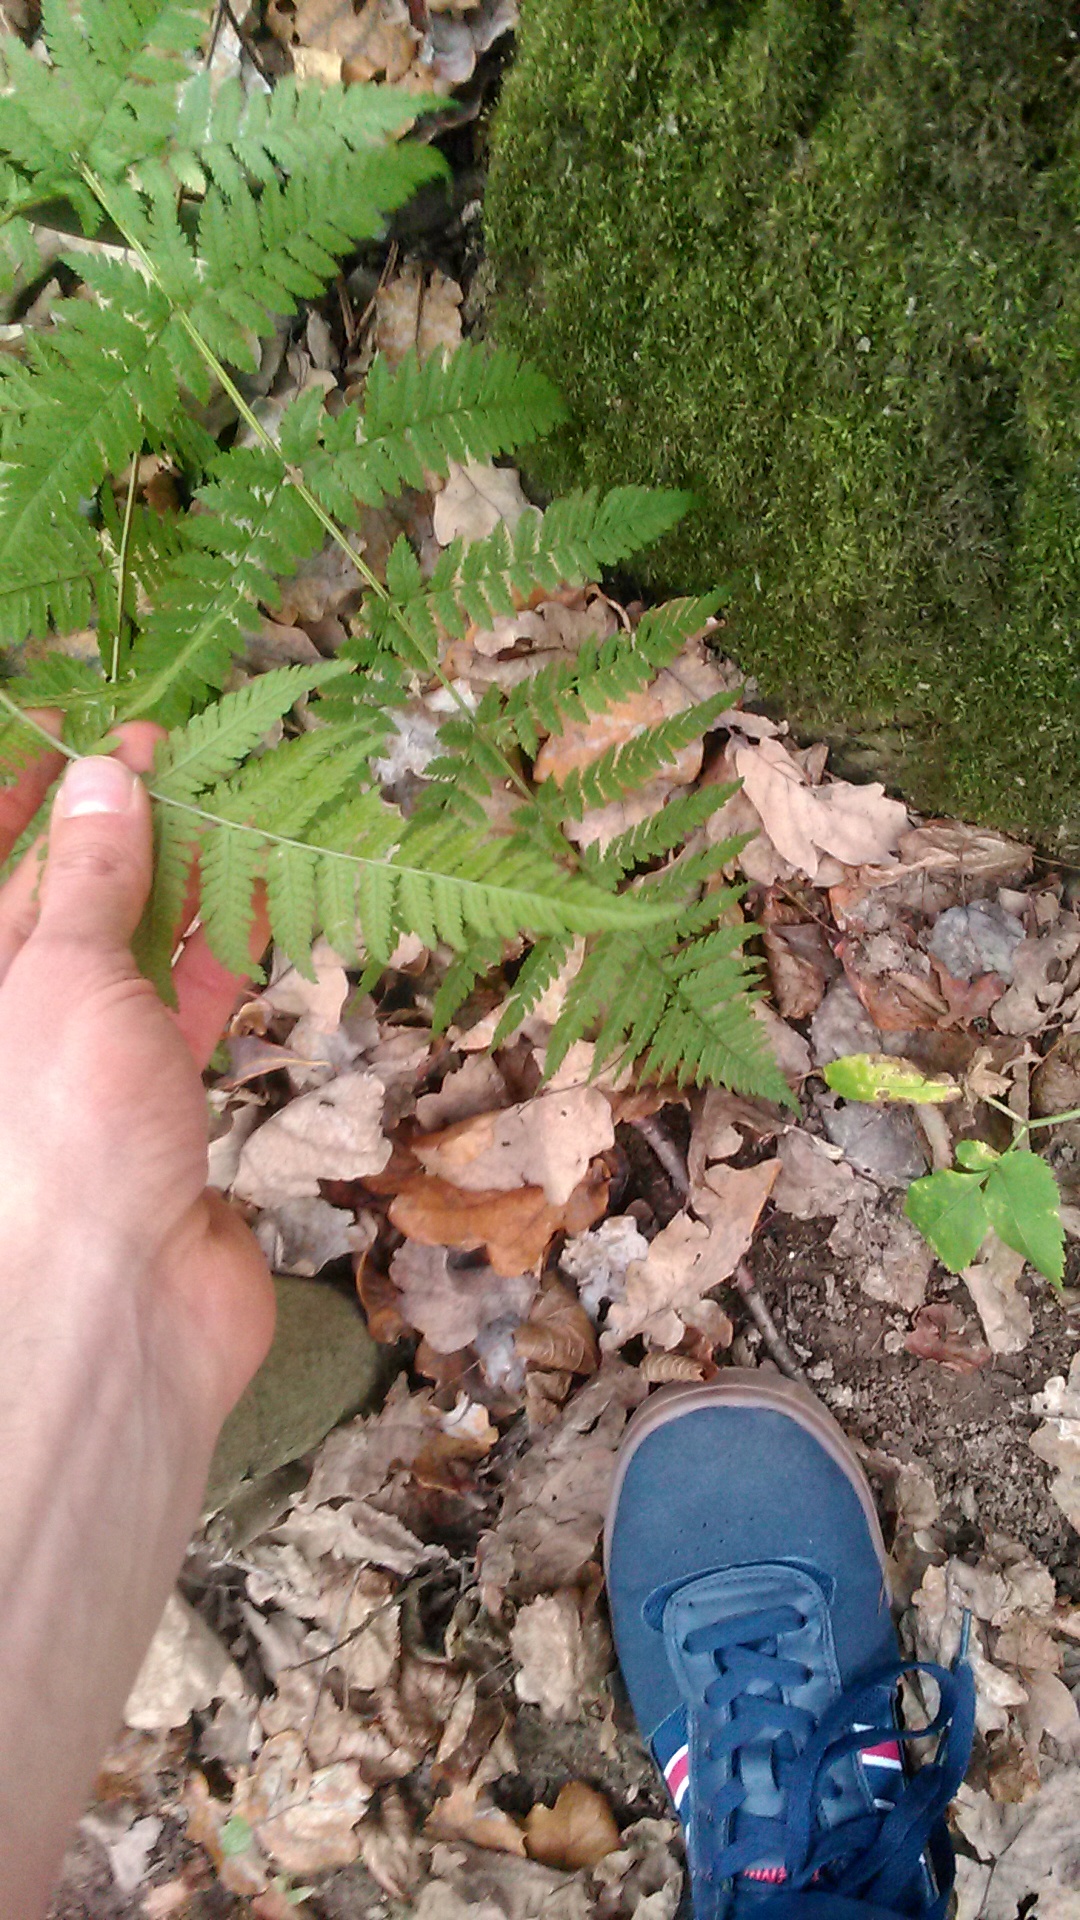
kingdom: Plantae
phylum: Tracheophyta
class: Polypodiopsida
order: Polypodiales
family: Dryopteridaceae
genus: Dryopteris
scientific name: Dryopteris carthusiana
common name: Narrow buckler-fern
